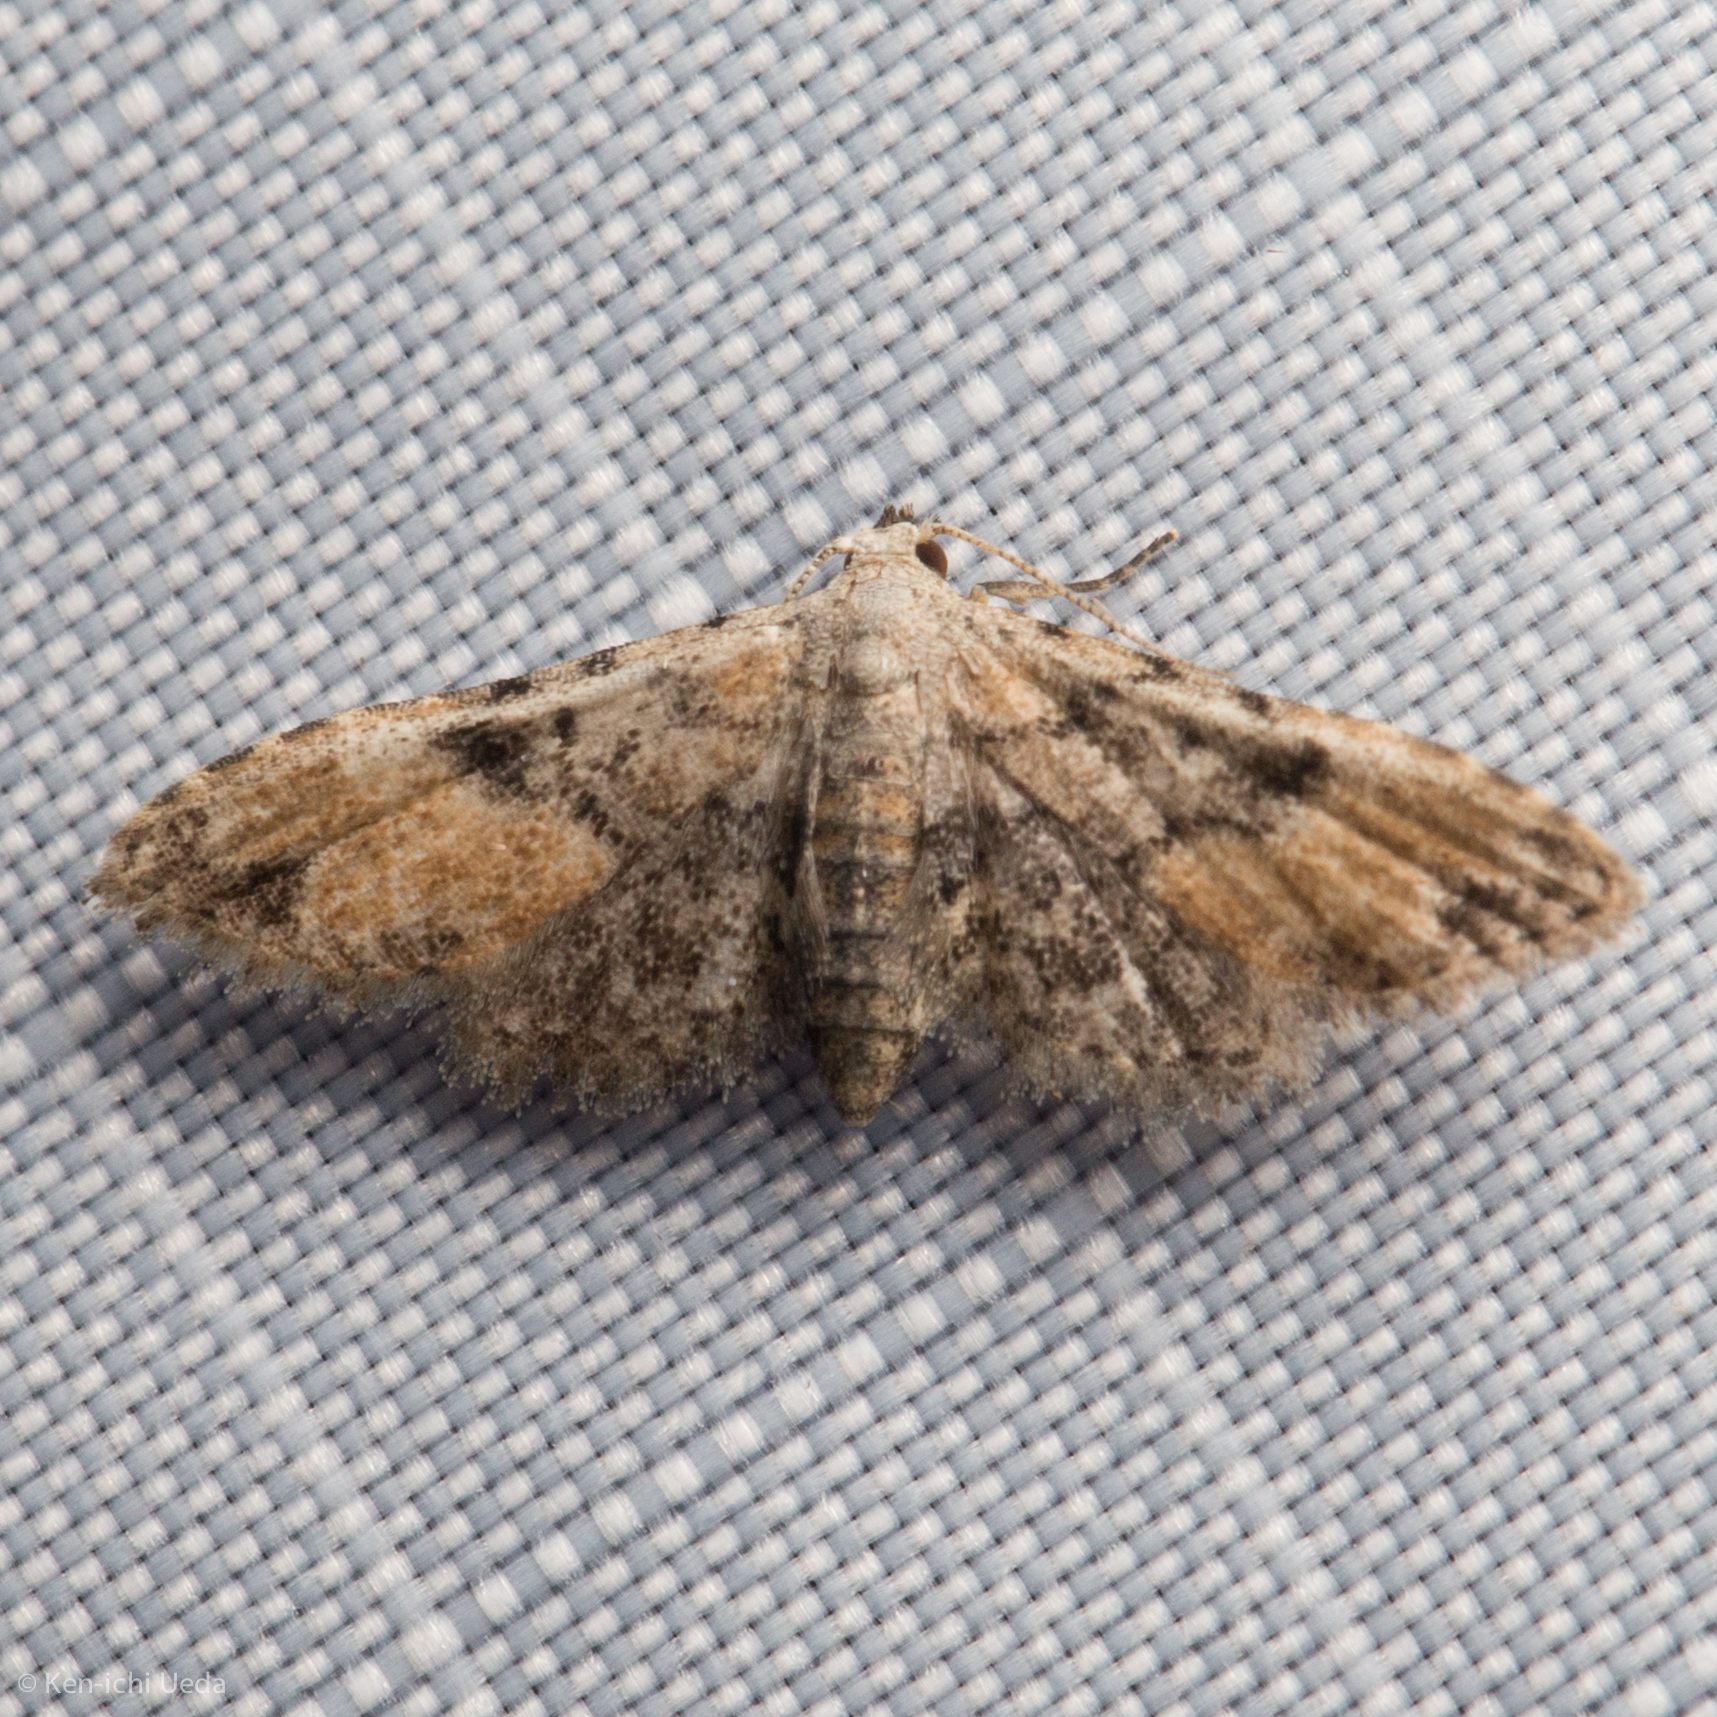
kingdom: Animalia
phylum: Arthropoda
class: Insecta
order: Lepidoptera
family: Erebidae
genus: Sigela
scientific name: Sigela brauneata
